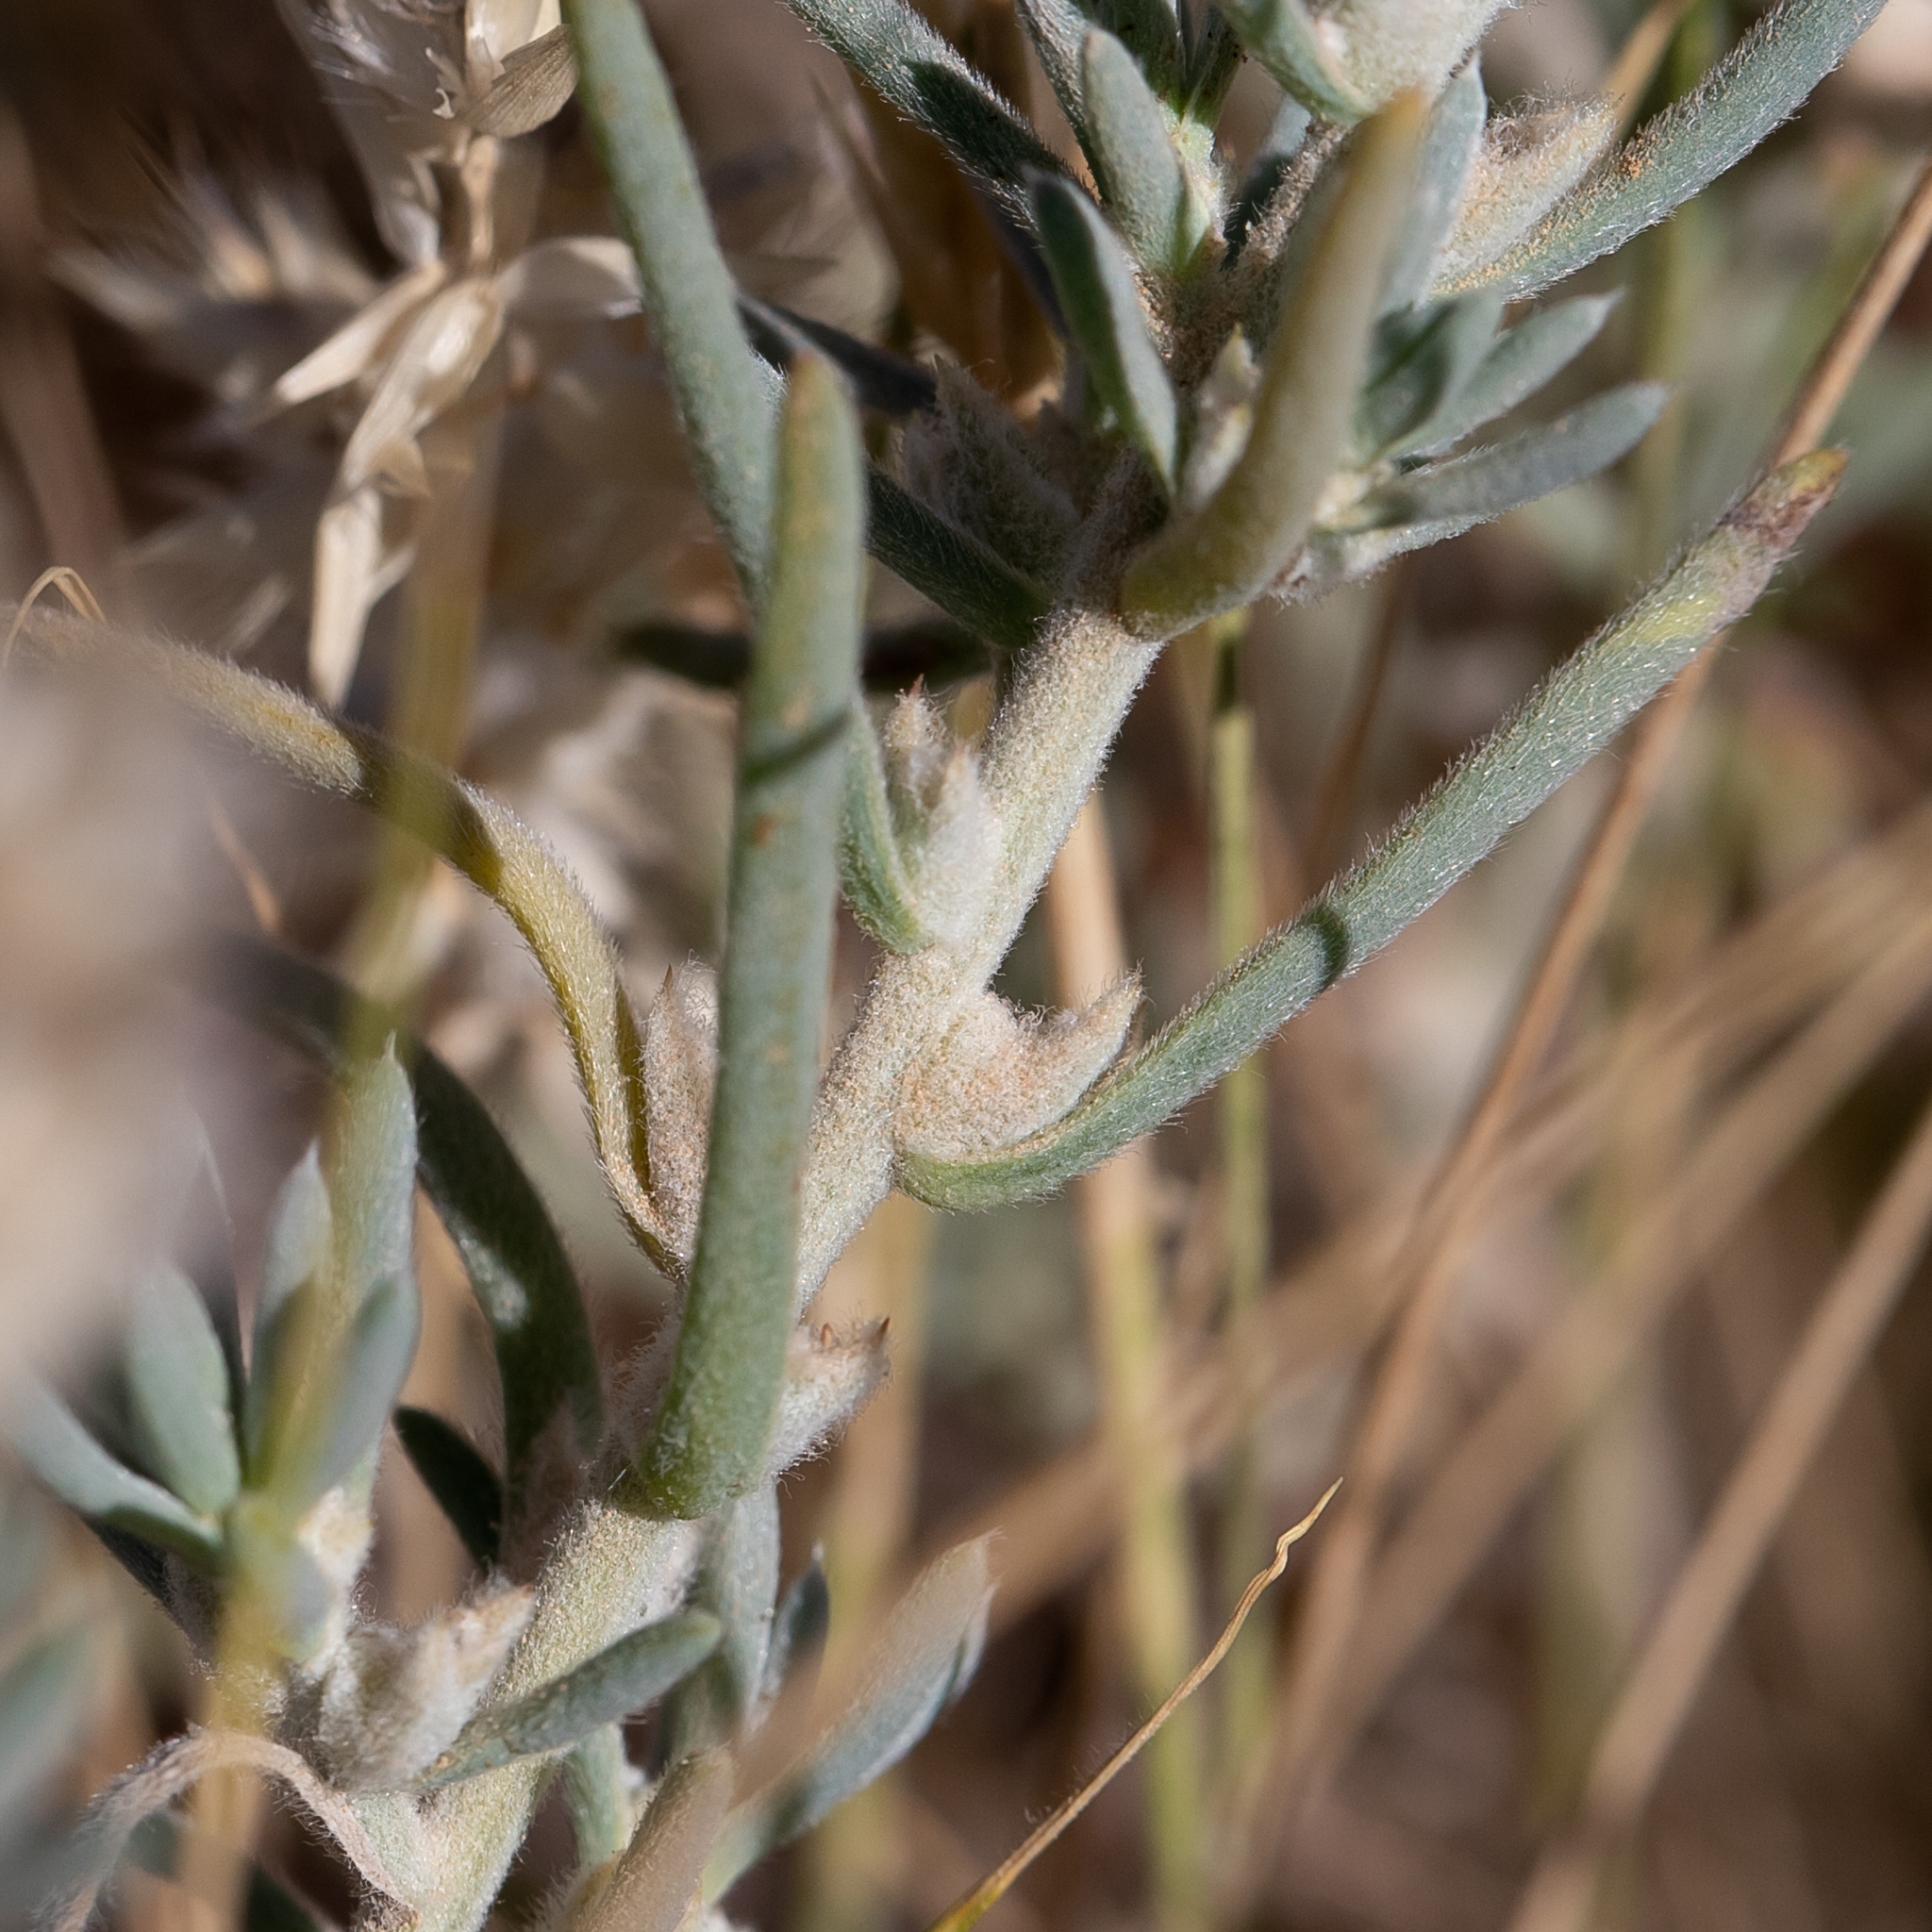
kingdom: Plantae
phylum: Tracheophyta
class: Magnoliopsida
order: Caryophyllales
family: Amaranthaceae
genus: Sclerolaena
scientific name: Sclerolaena parallelicuspis
